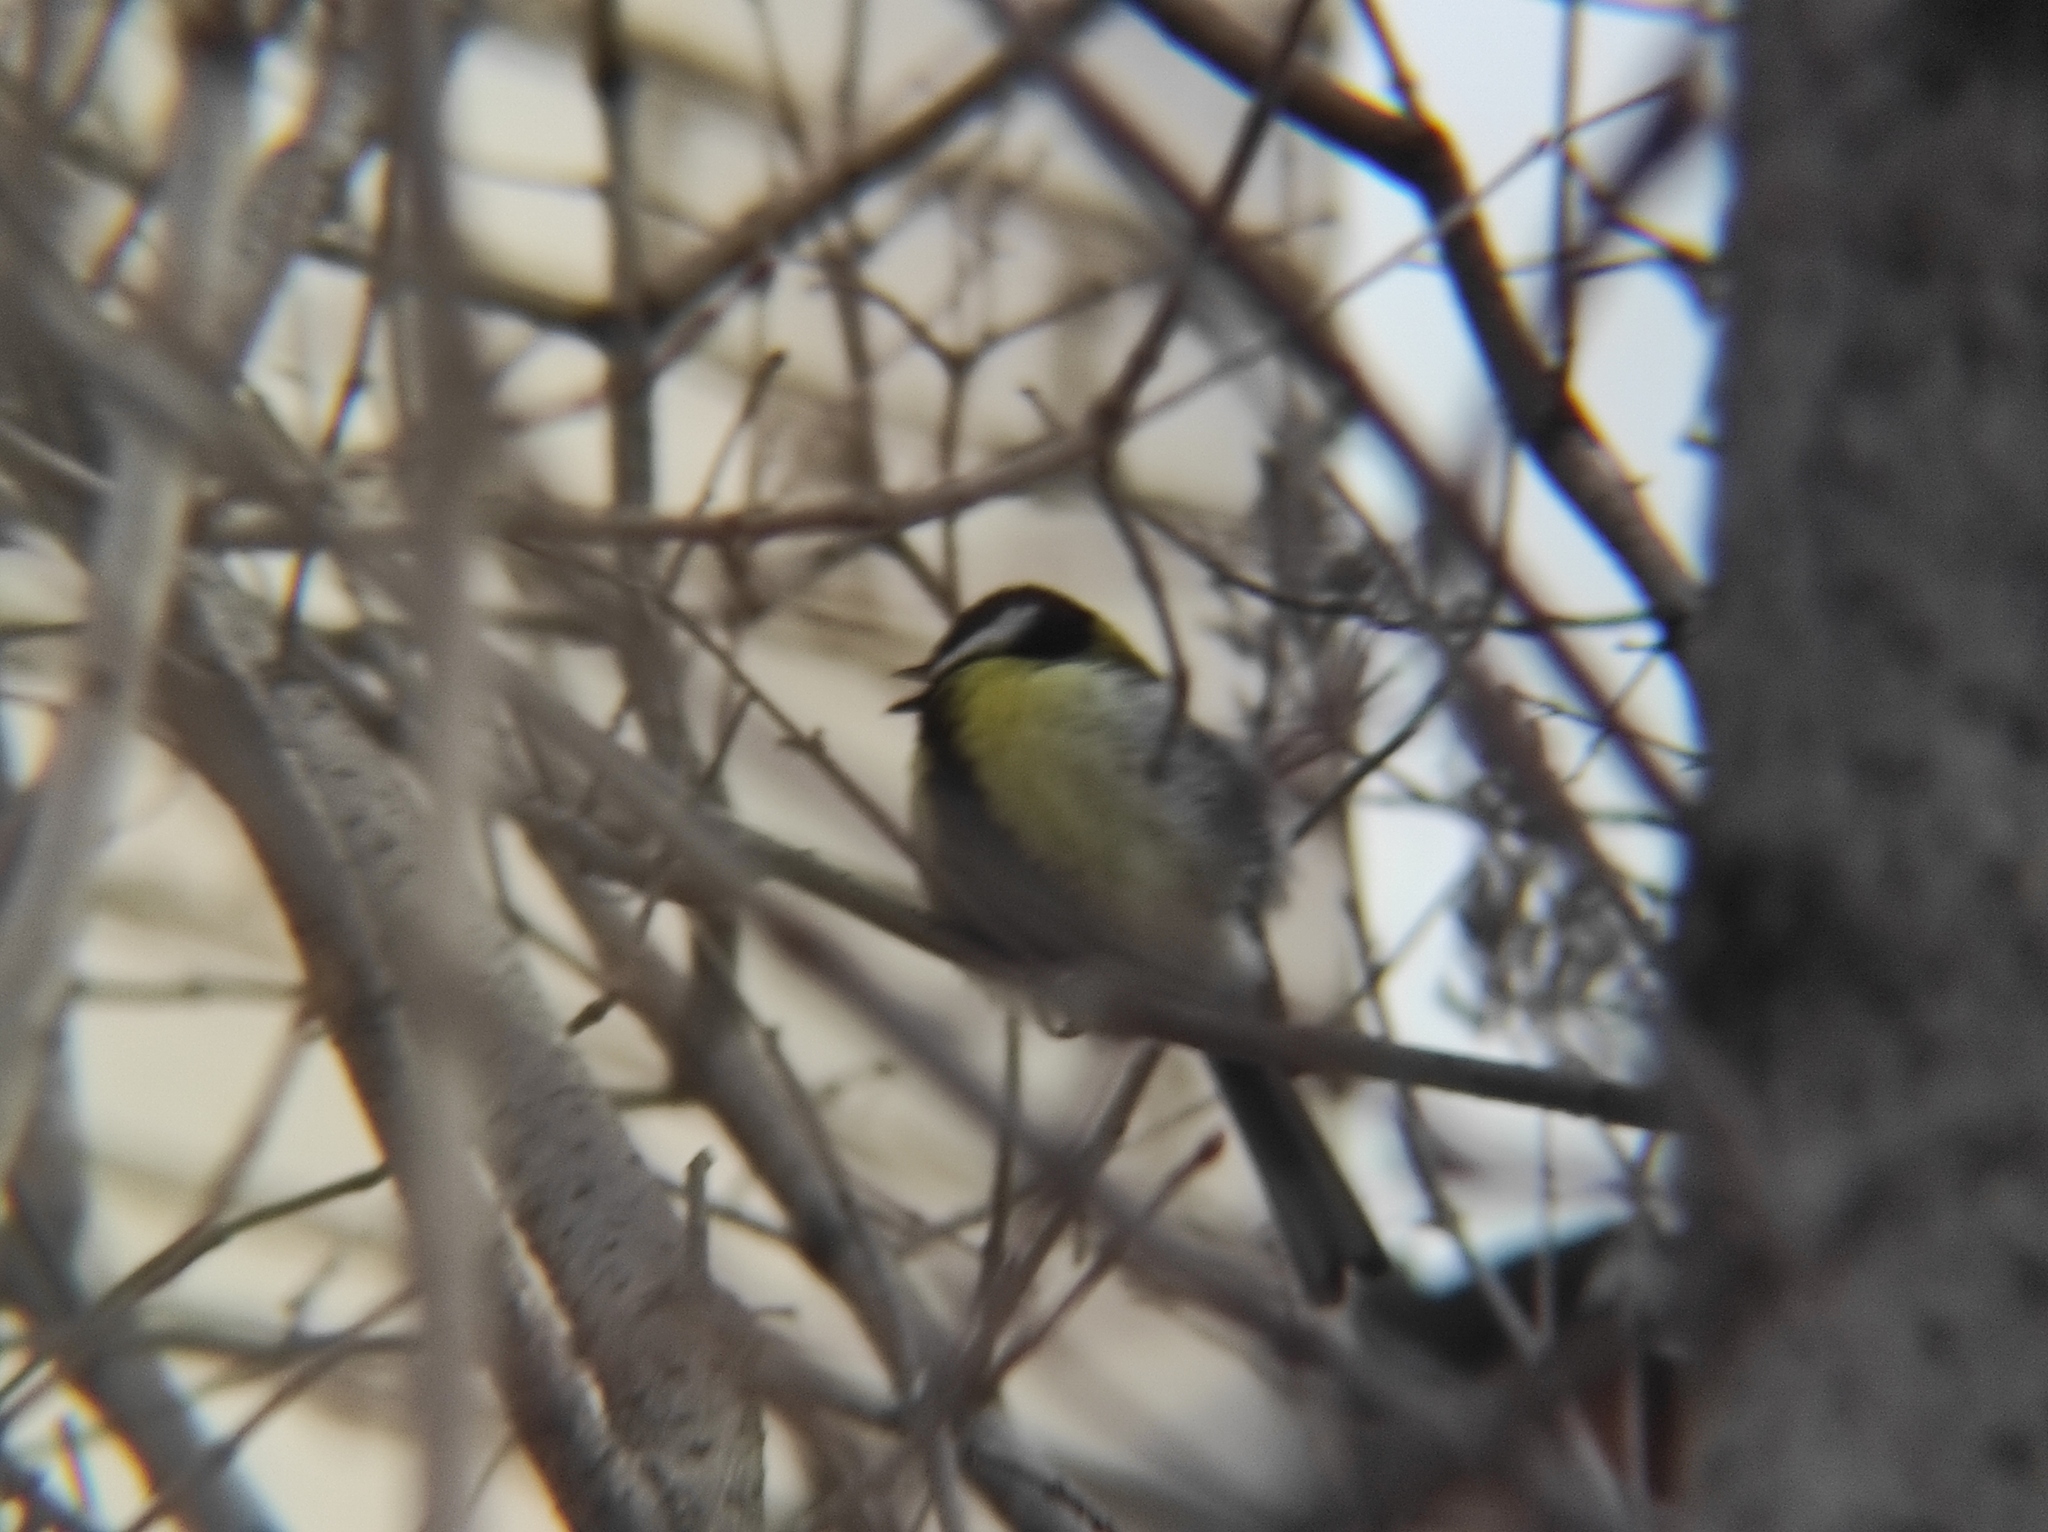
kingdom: Animalia
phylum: Chordata
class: Aves
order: Passeriformes
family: Paridae
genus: Parus
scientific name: Parus major
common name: Great tit
